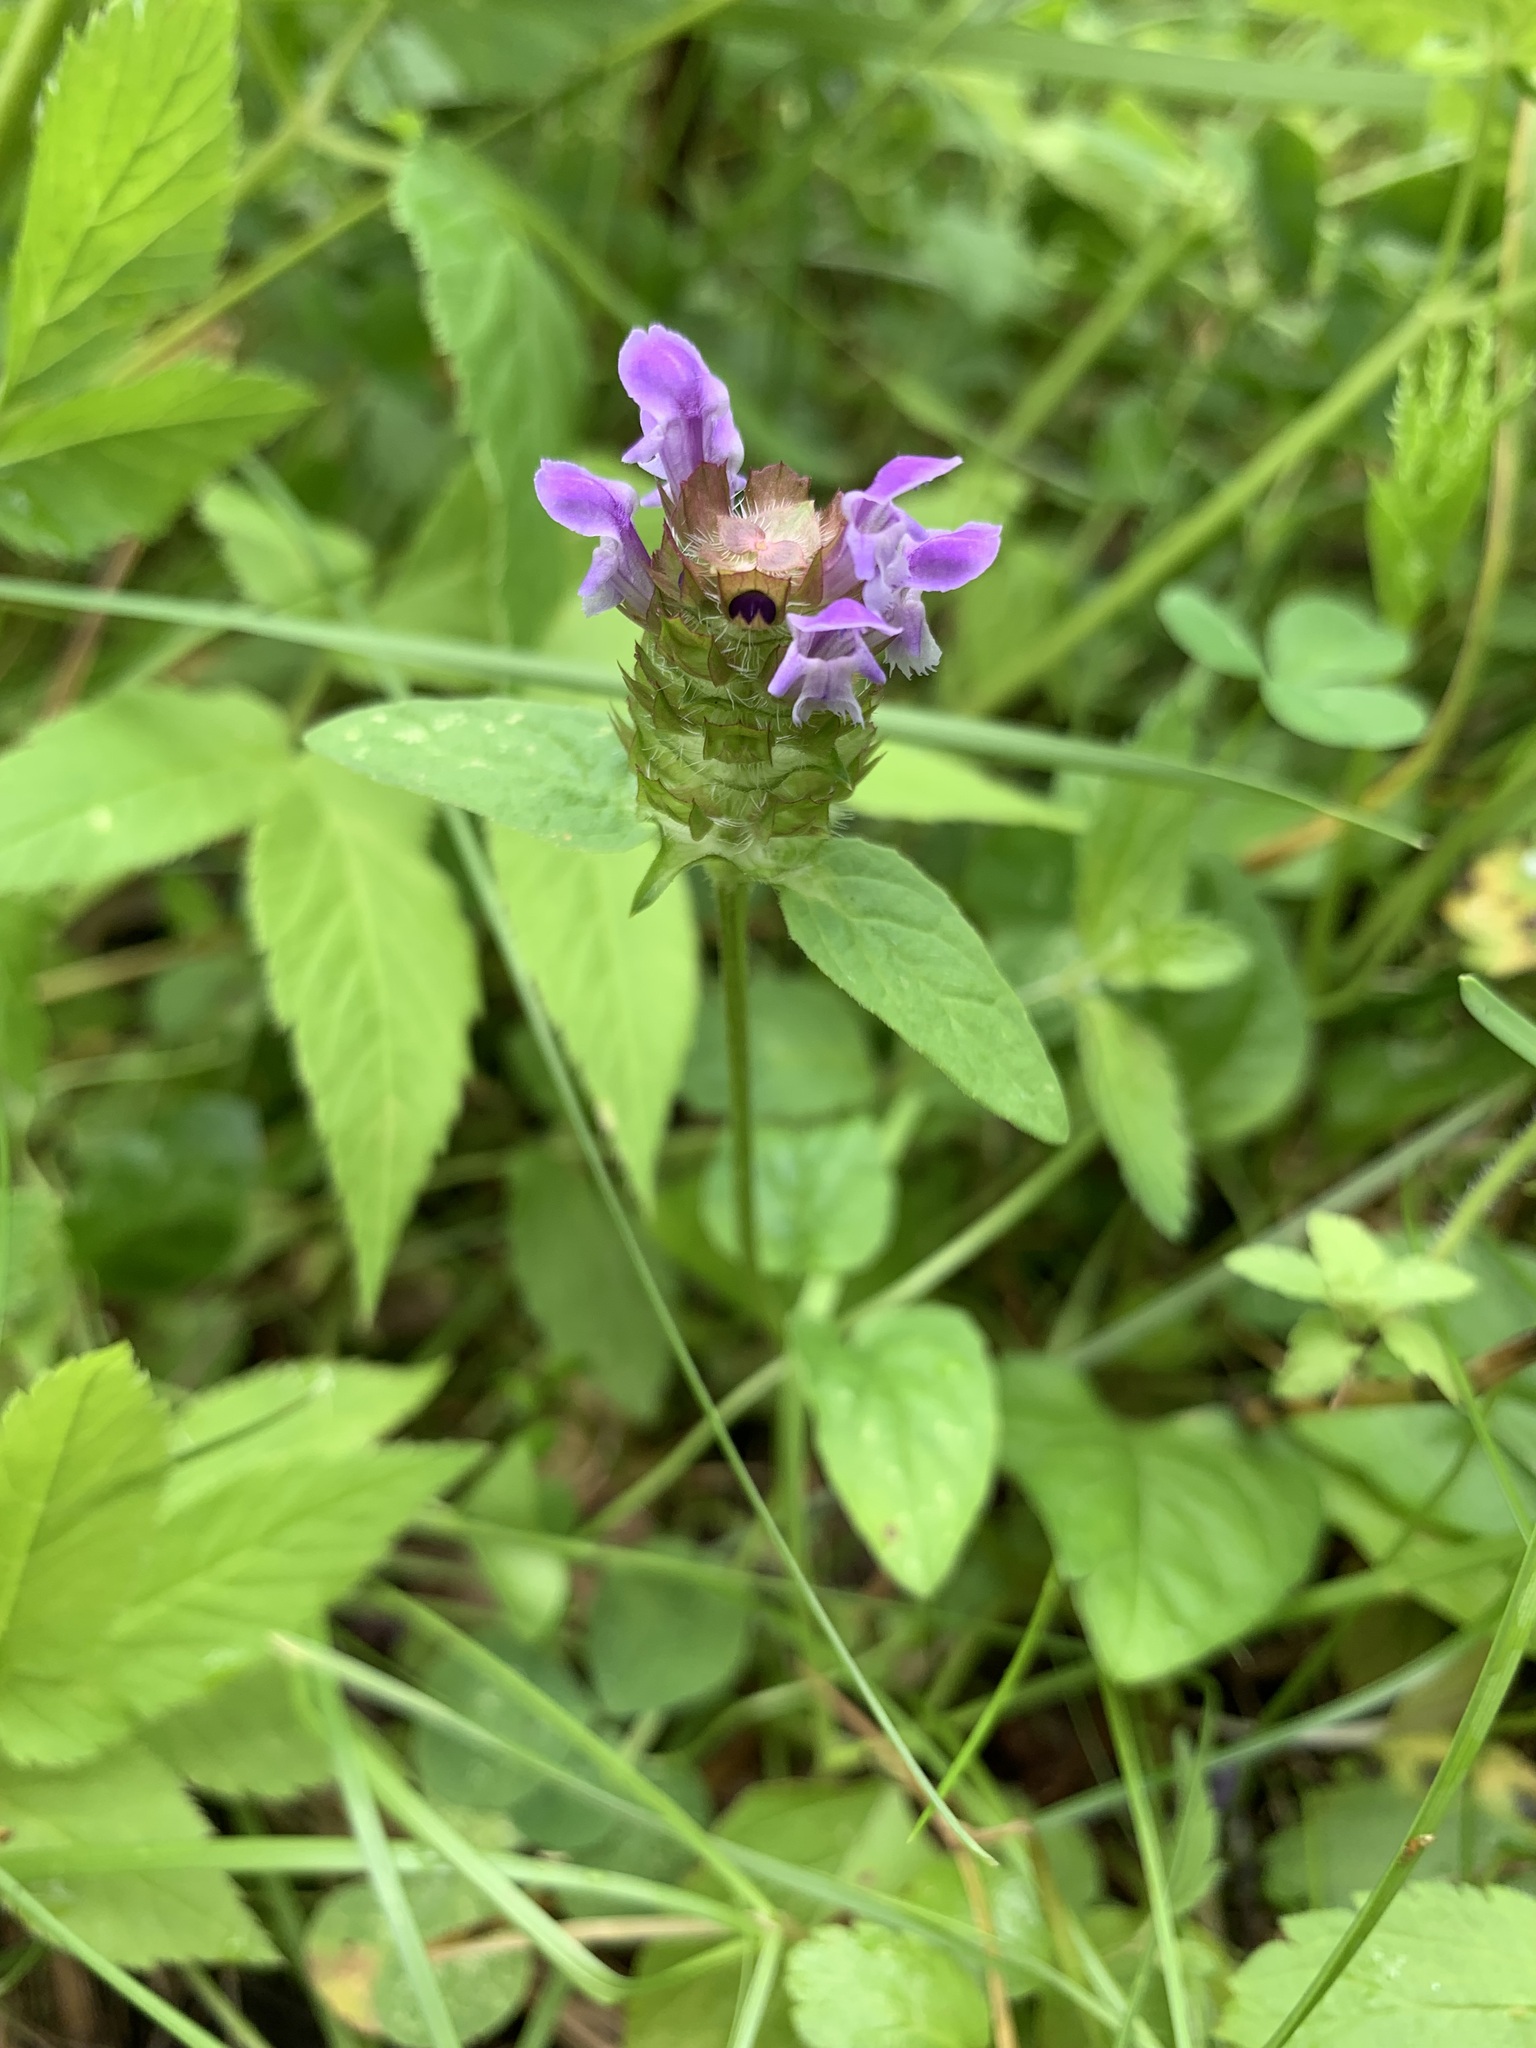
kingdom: Plantae
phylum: Tracheophyta
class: Magnoliopsida
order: Lamiales
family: Lamiaceae
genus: Prunella
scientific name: Prunella vulgaris
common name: Heal-all
